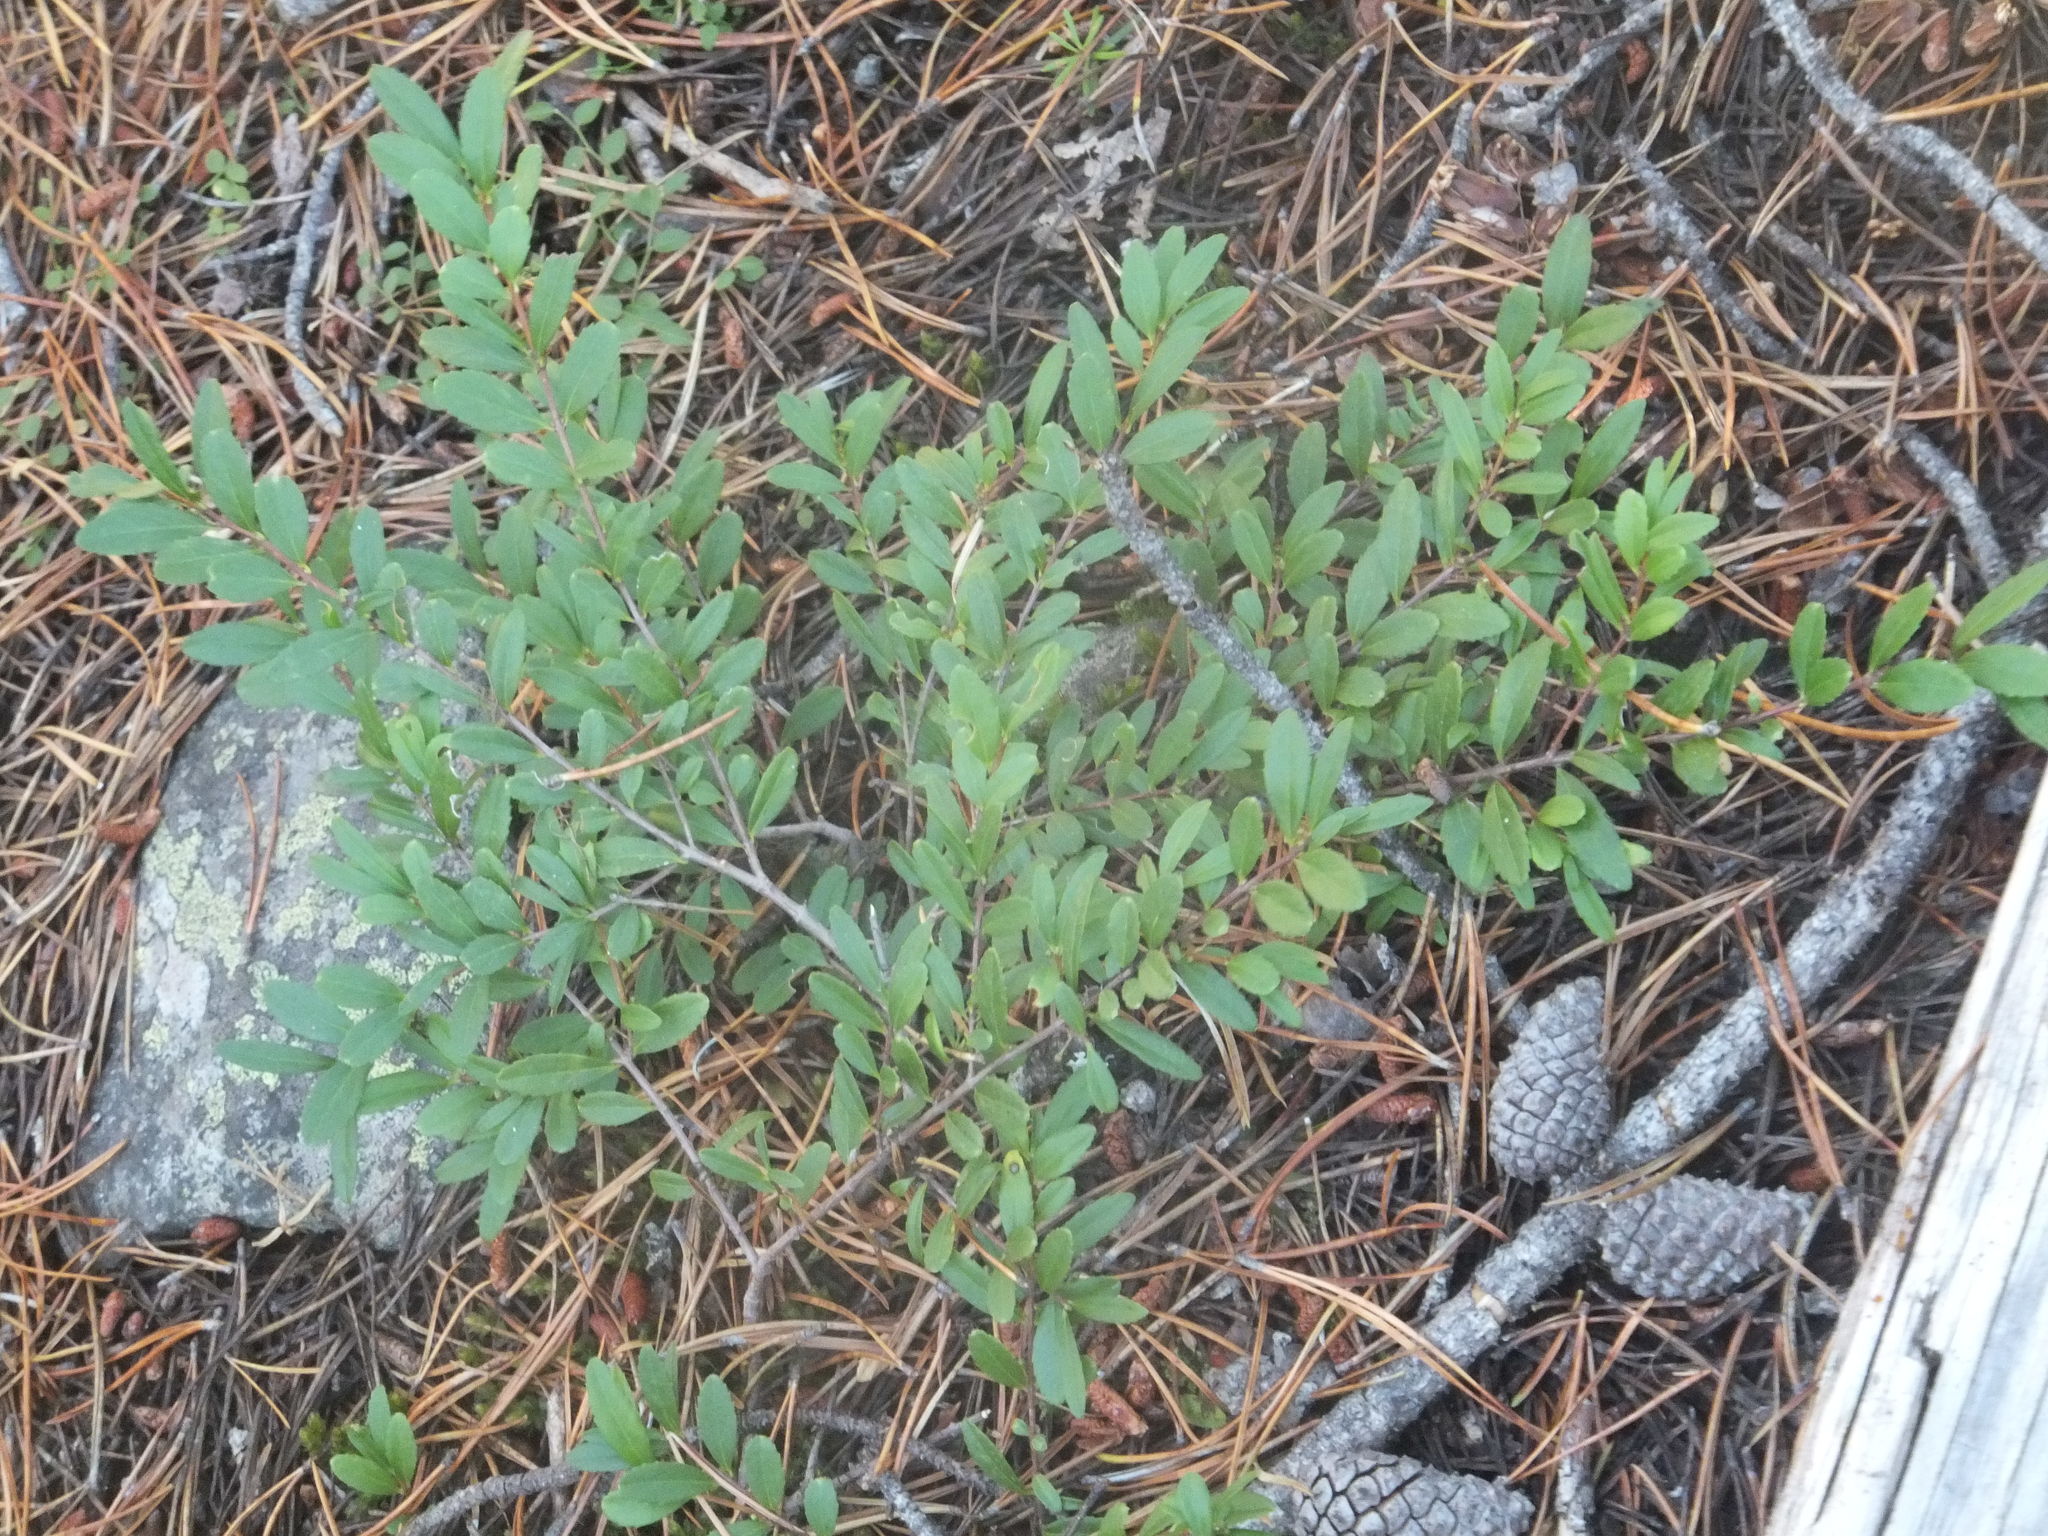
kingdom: Plantae
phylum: Tracheophyta
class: Magnoliopsida
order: Celastrales
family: Celastraceae
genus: Paxistima
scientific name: Paxistima myrsinites
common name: Mountain-lover
